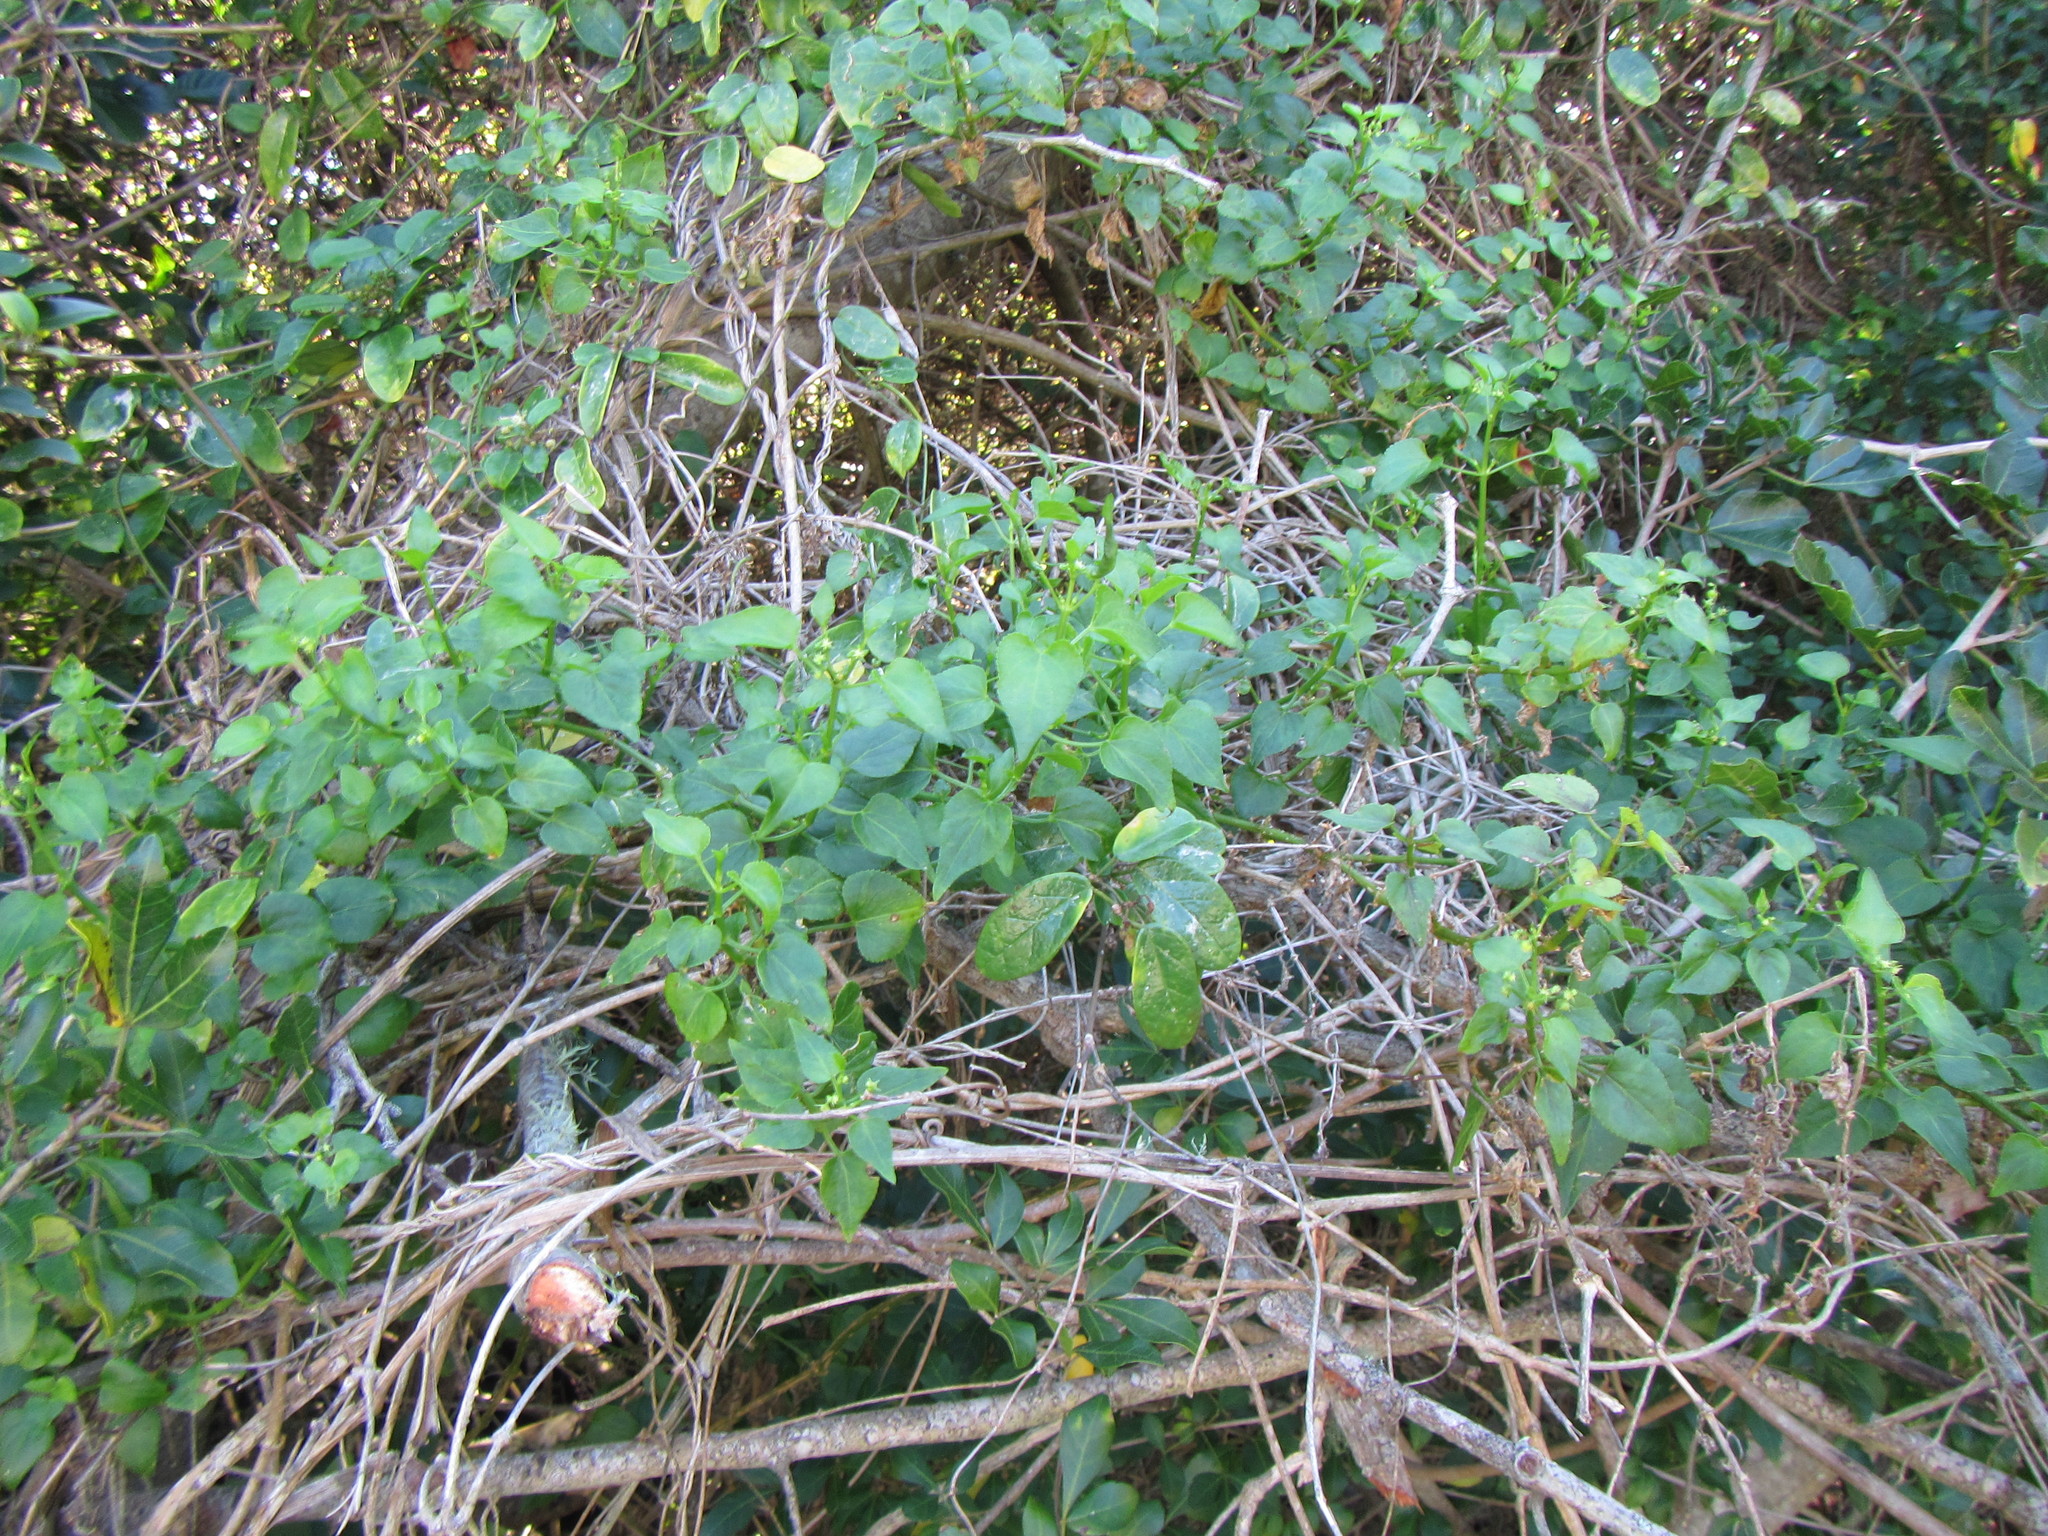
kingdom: Plantae
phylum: Tracheophyta
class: Magnoliopsida
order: Malpighiales
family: Euphorbiaceae
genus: Adenocline
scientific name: Adenocline acuta
